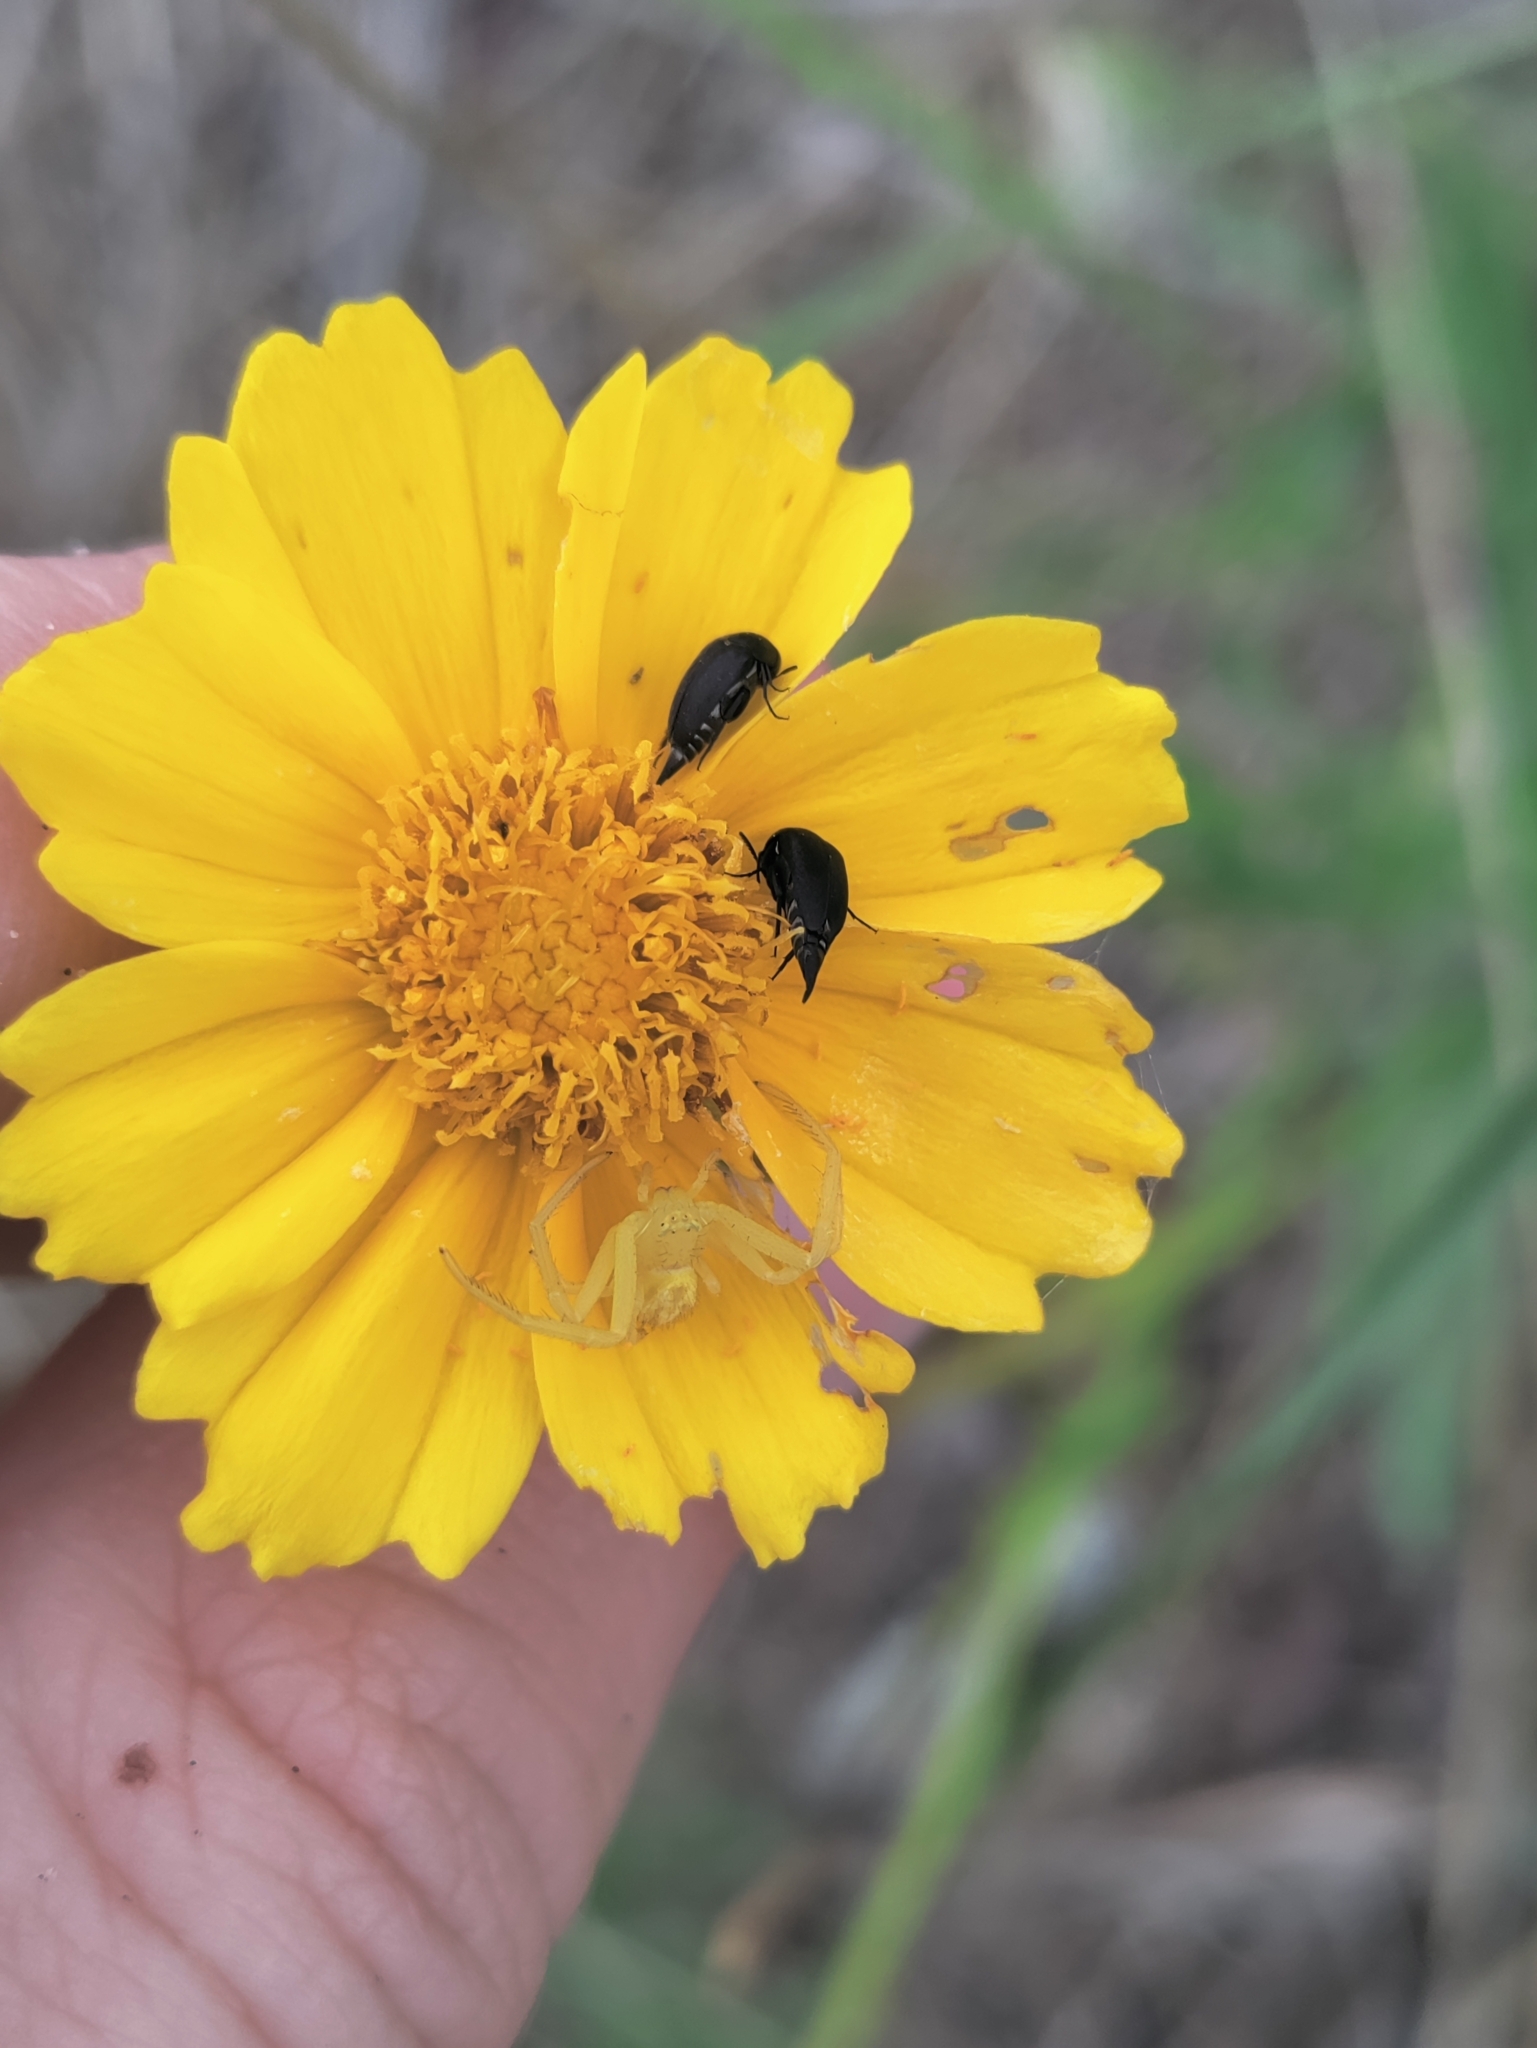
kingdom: Plantae
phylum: Tracheophyta
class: Magnoliopsida
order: Asterales
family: Asteraceae
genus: Coreopsis
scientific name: Coreopsis lanceolata
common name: Garden coreopsis
